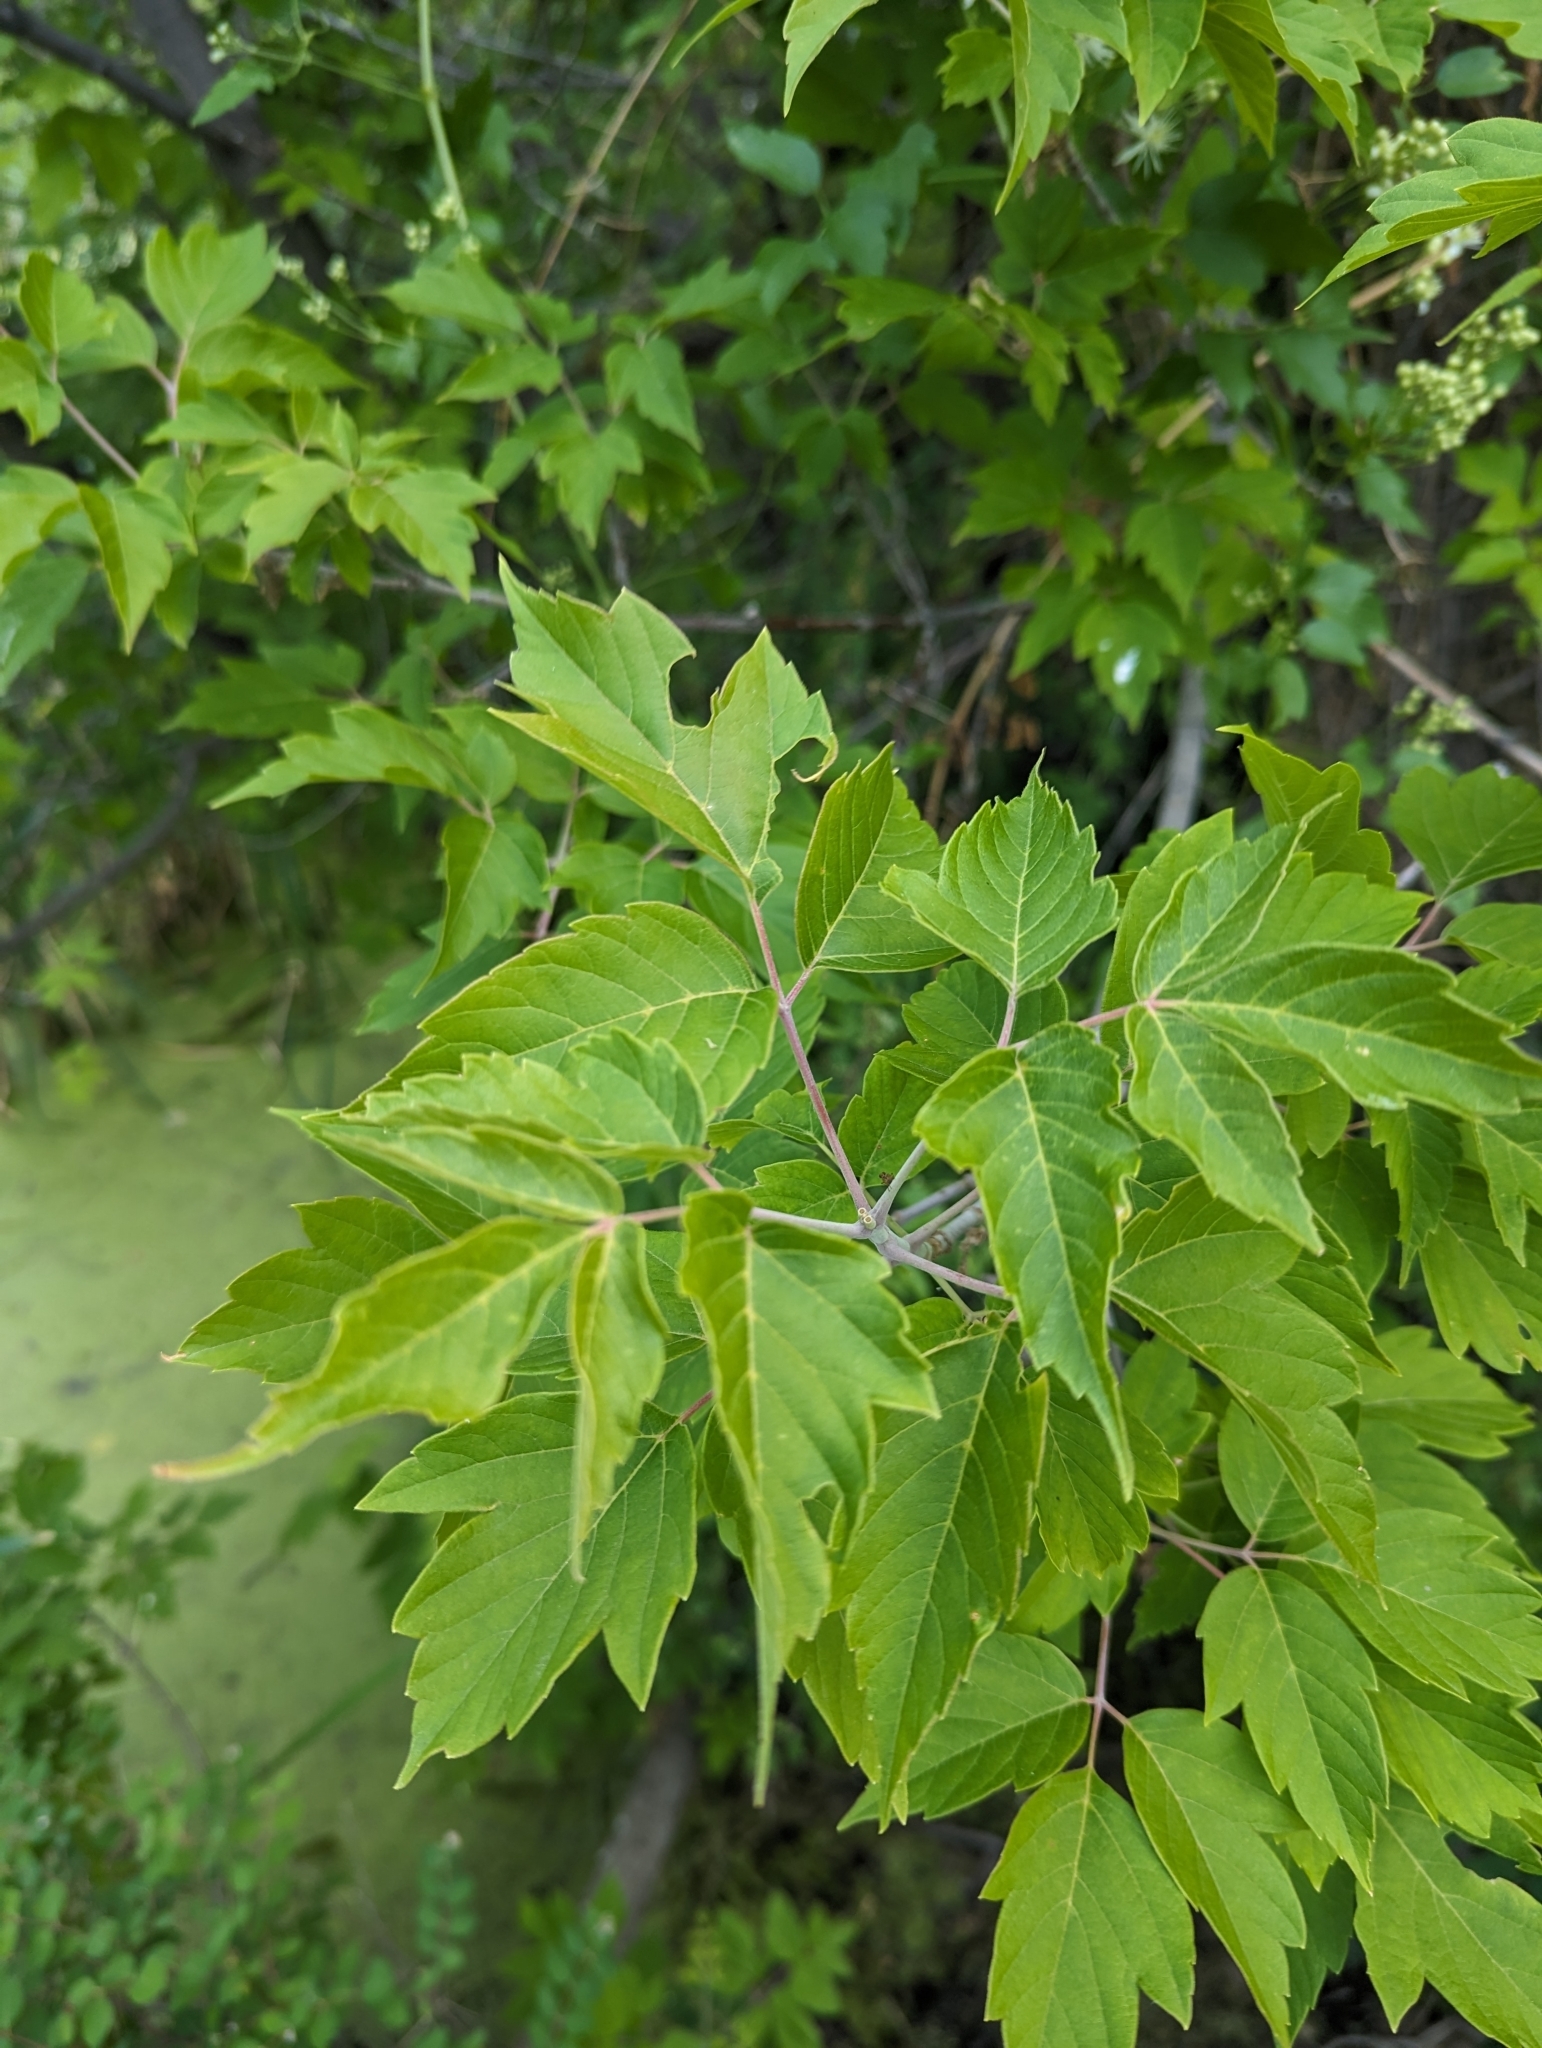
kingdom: Plantae
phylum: Tracheophyta
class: Magnoliopsida
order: Sapindales
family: Sapindaceae
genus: Acer
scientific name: Acer negundo
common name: Ashleaf maple
